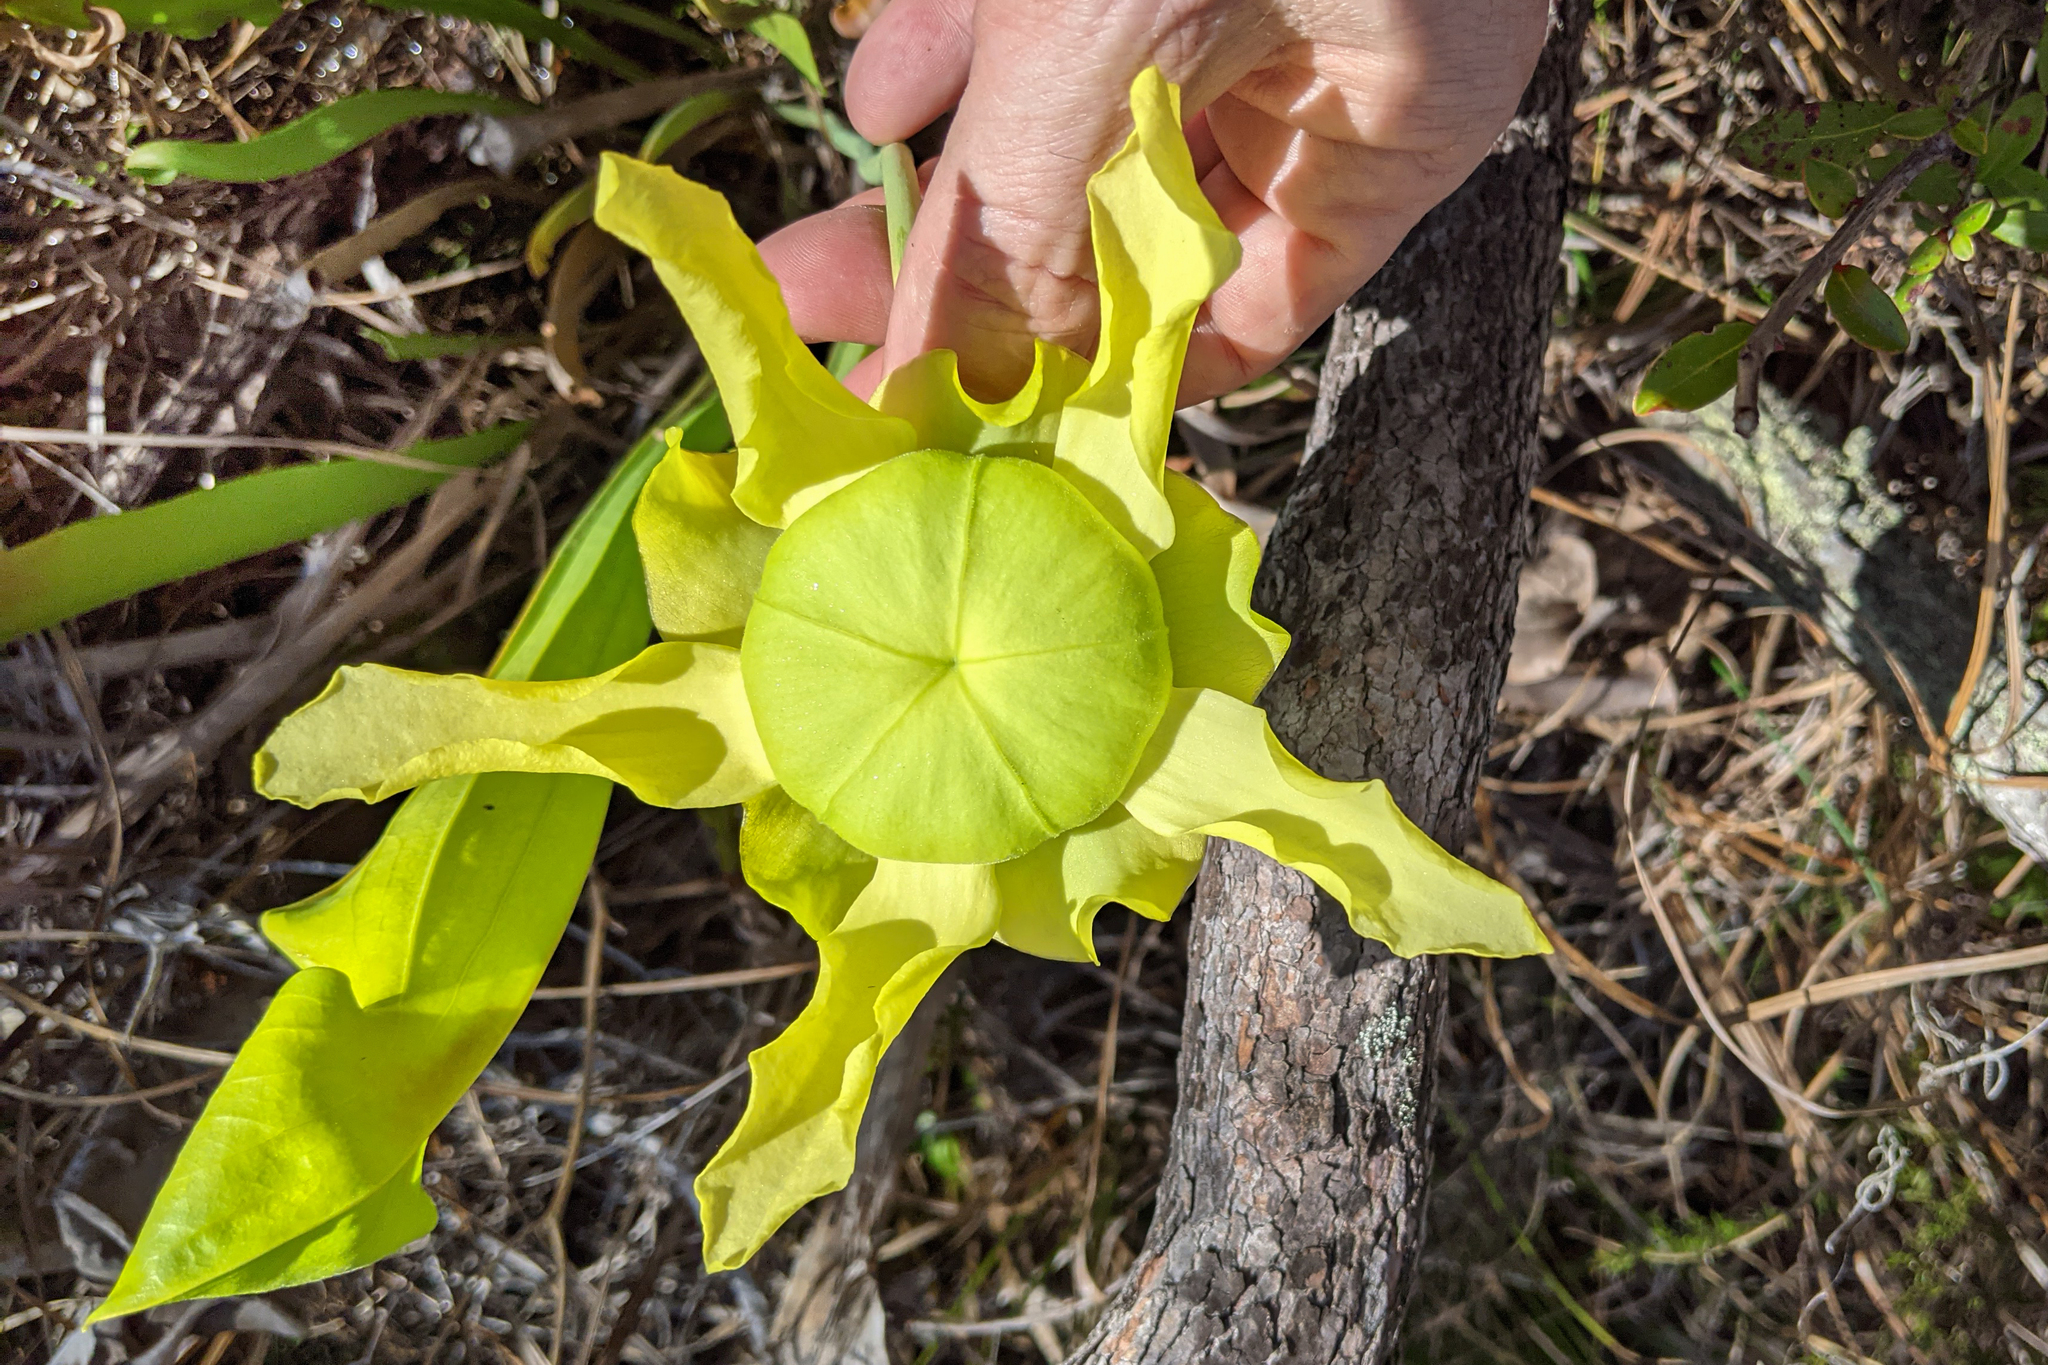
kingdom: Plantae
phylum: Tracheophyta
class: Magnoliopsida
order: Ericales
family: Sarraceniaceae
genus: Sarracenia
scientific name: Sarracenia flava
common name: Trumpets
